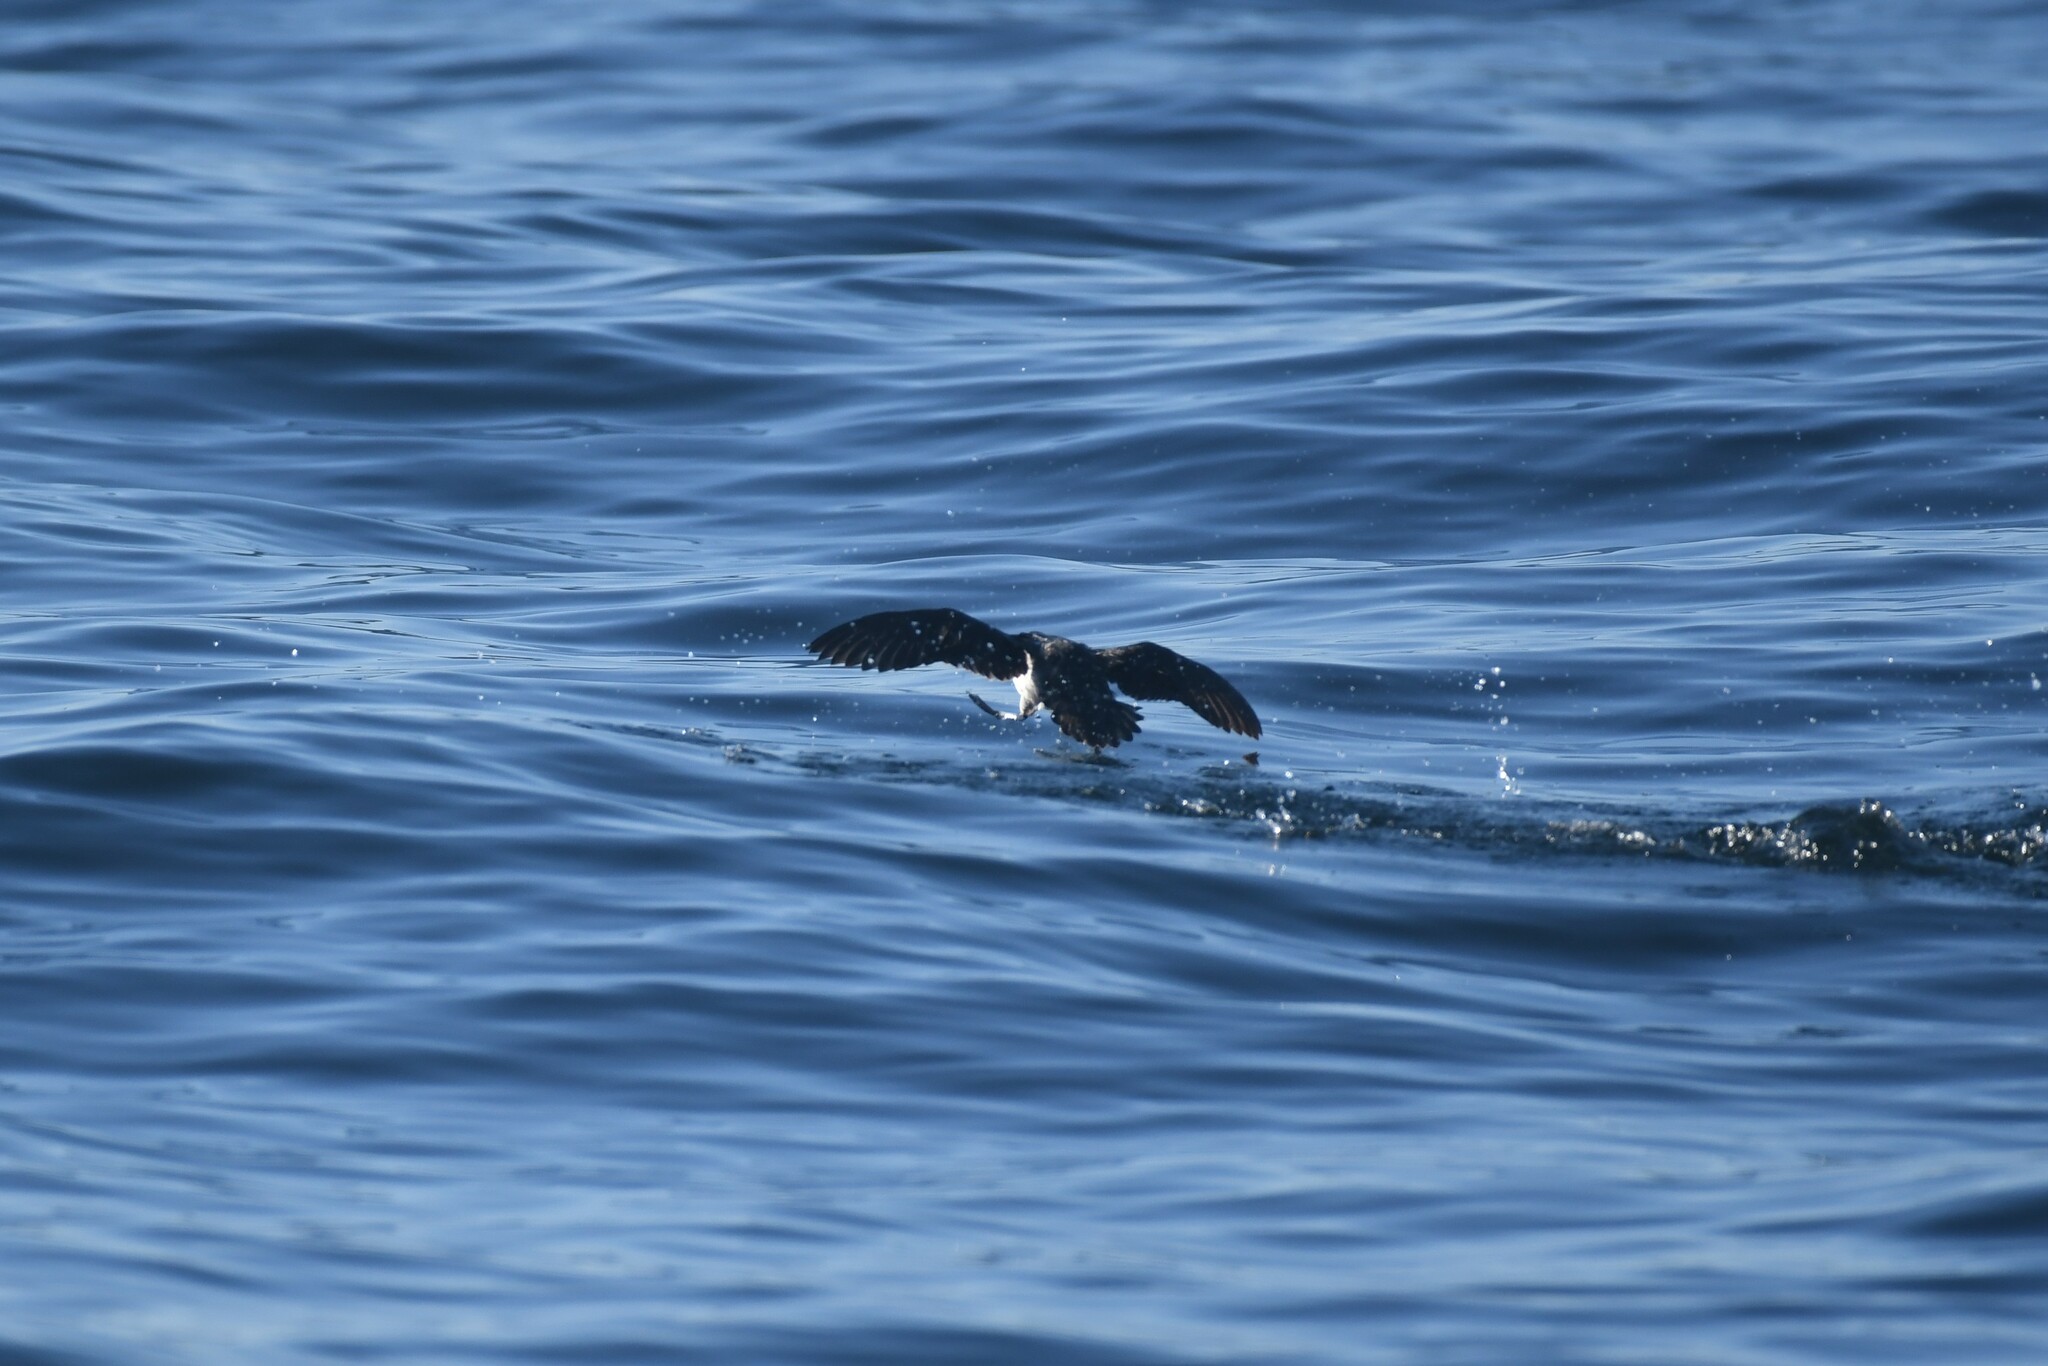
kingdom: Animalia
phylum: Chordata
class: Aves
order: Procellariiformes
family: Pelecanoididae
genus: Pelecanoides
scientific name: Pelecanoides garnotii
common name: Peruvian diving-petrel
